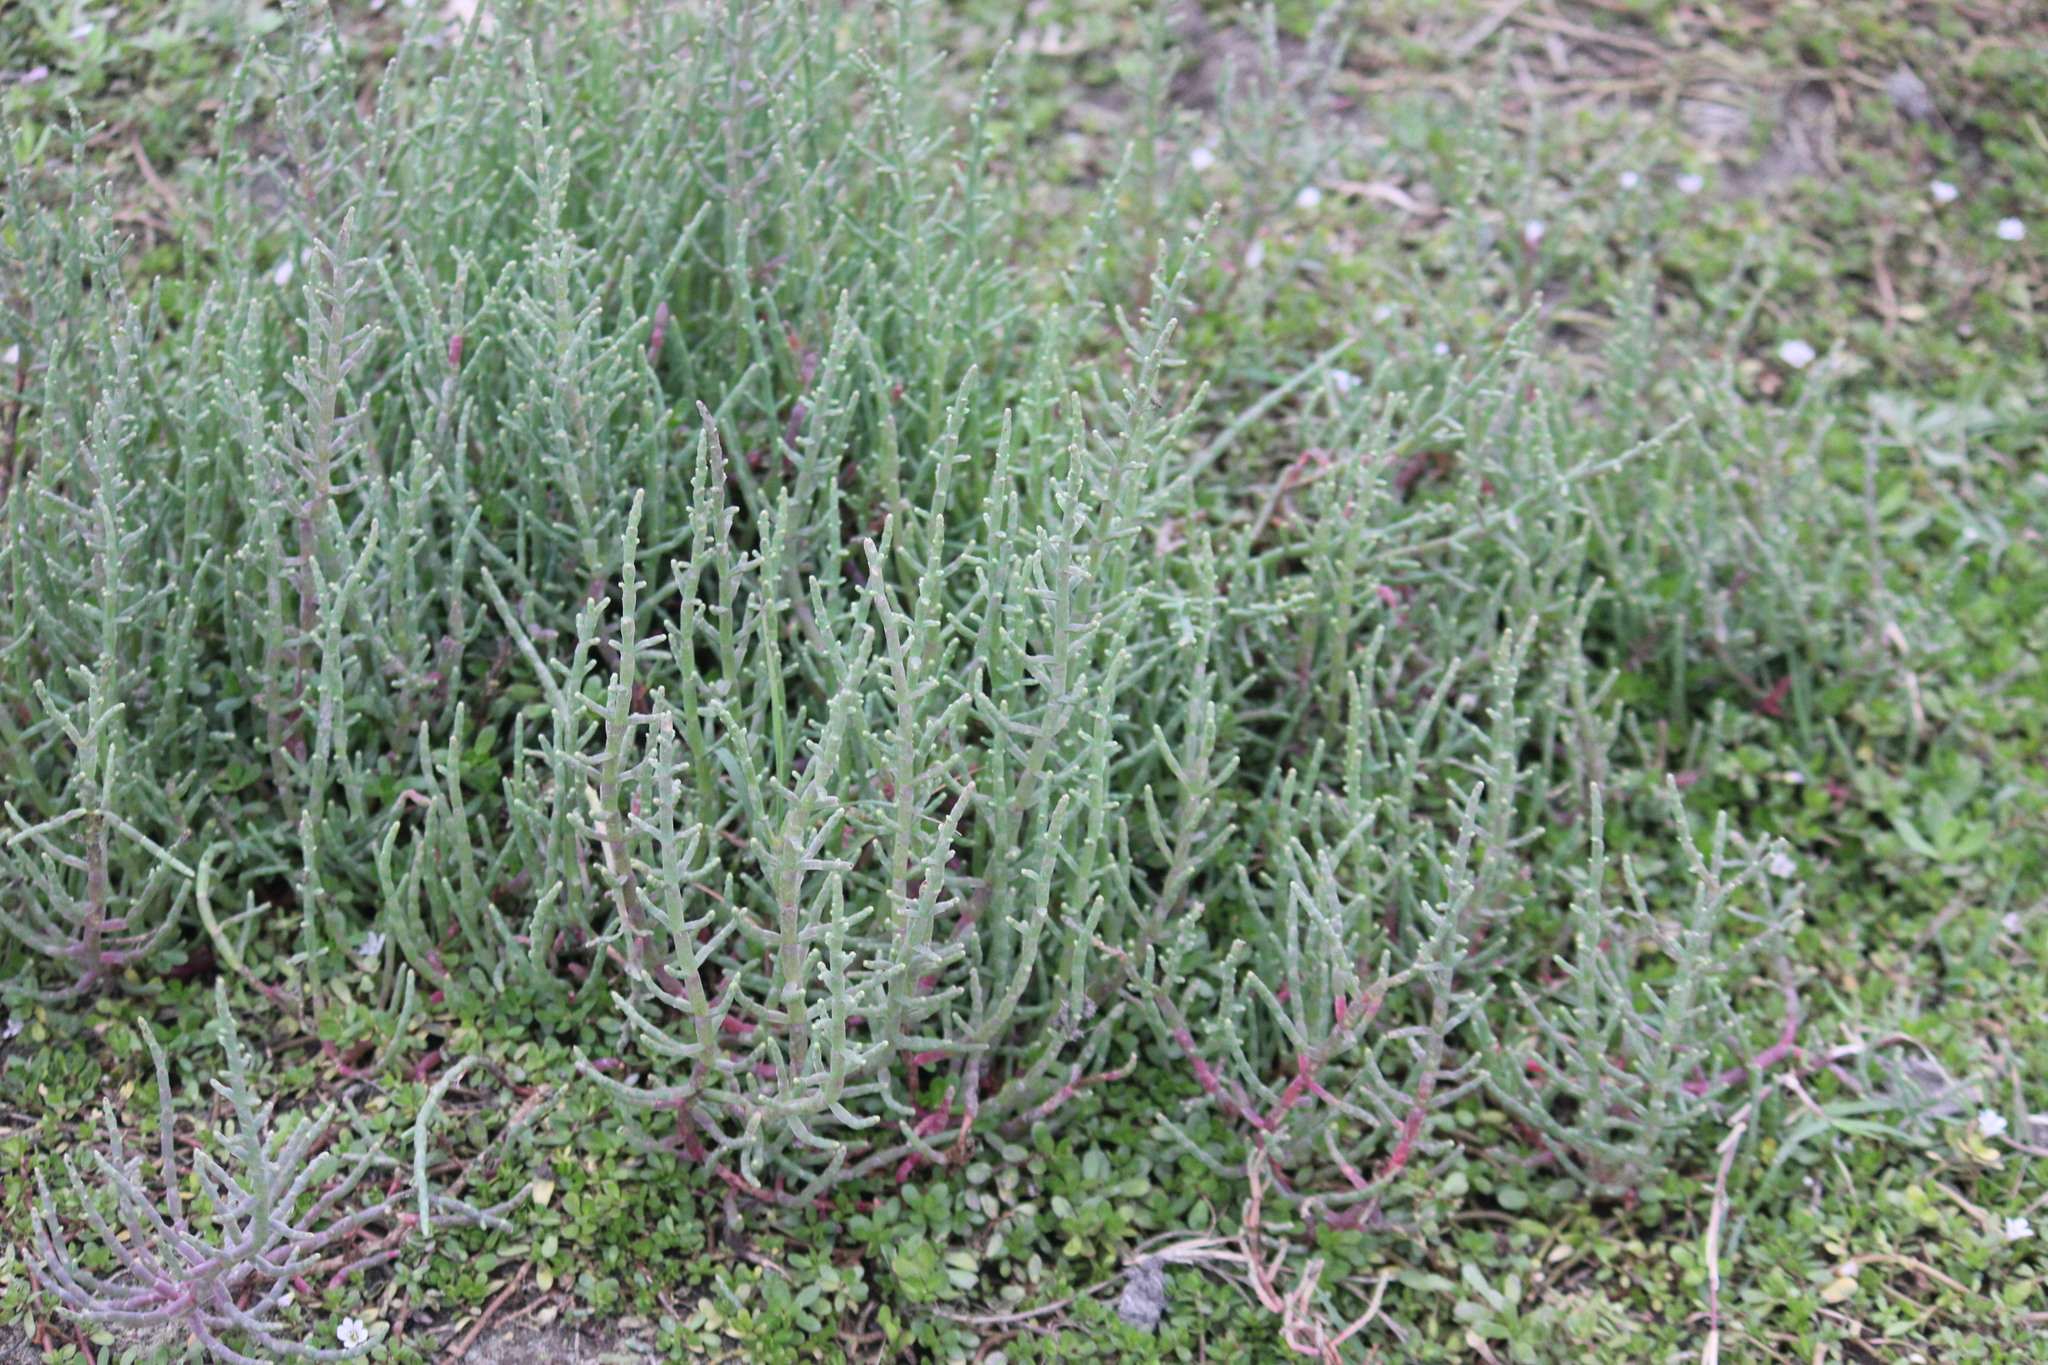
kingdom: Plantae
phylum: Tracheophyta
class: Magnoliopsida
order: Caryophyllales
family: Amaranthaceae
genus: Salicornia
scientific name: Salicornia neei
